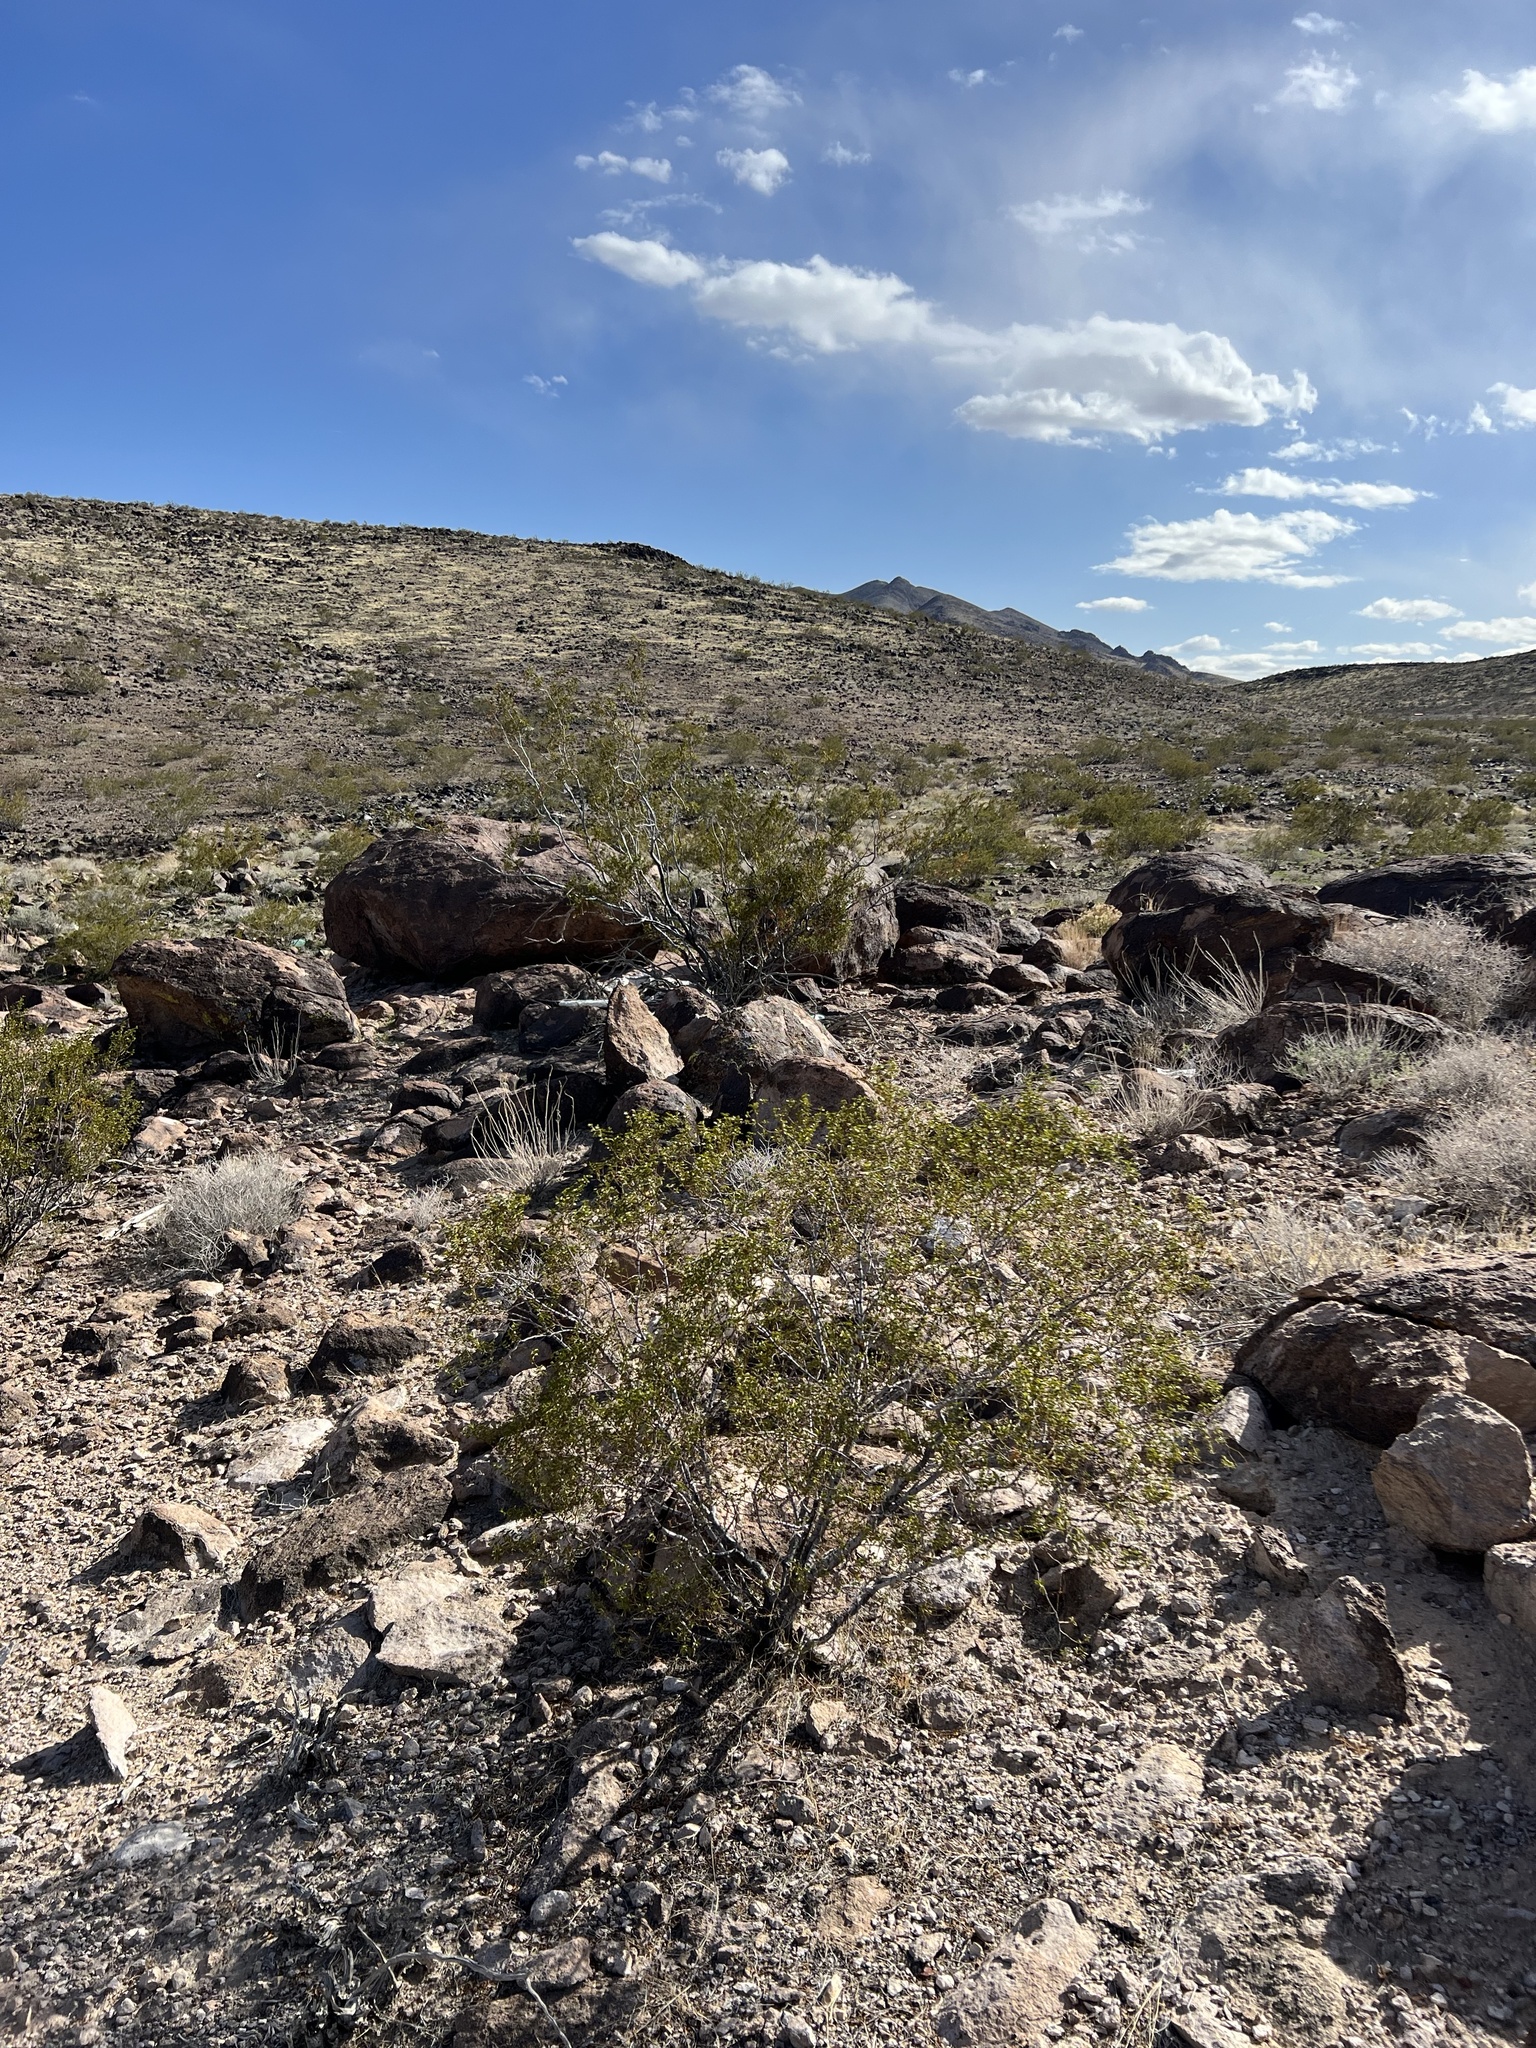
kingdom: Plantae
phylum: Tracheophyta
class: Magnoliopsida
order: Zygophyllales
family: Zygophyllaceae
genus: Larrea
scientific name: Larrea tridentata
